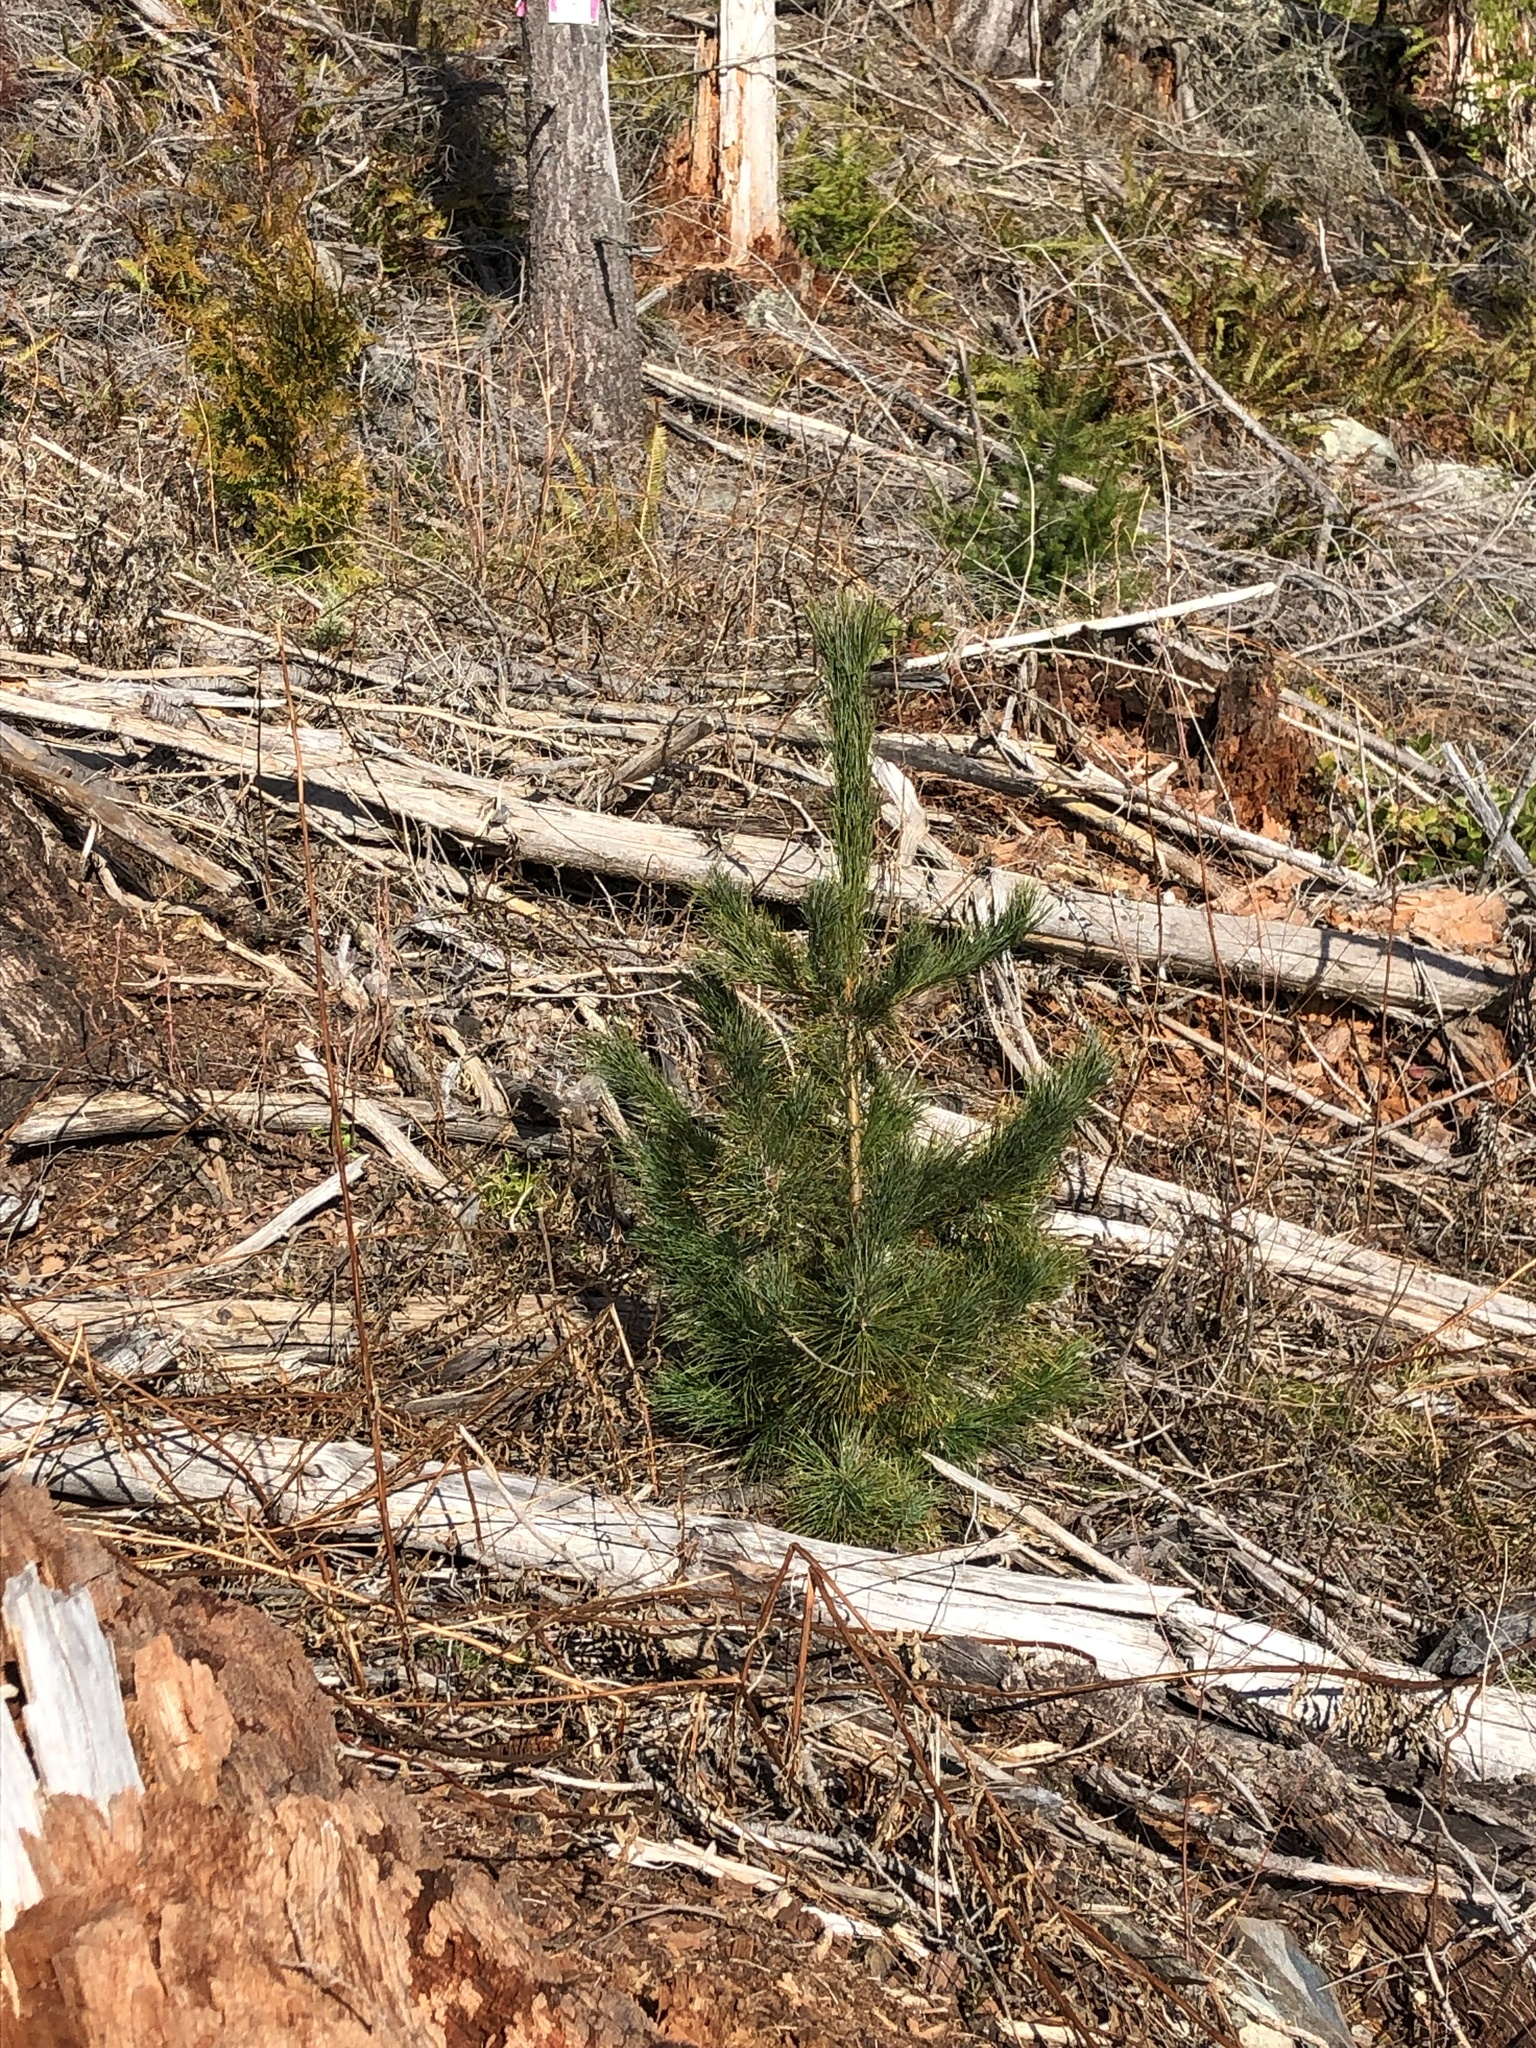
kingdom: Plantae
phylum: Tracheophyta
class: Pinopsida
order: Pinales
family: Pinaceae
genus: Pinus
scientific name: Pinus monticola
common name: Western white pine
